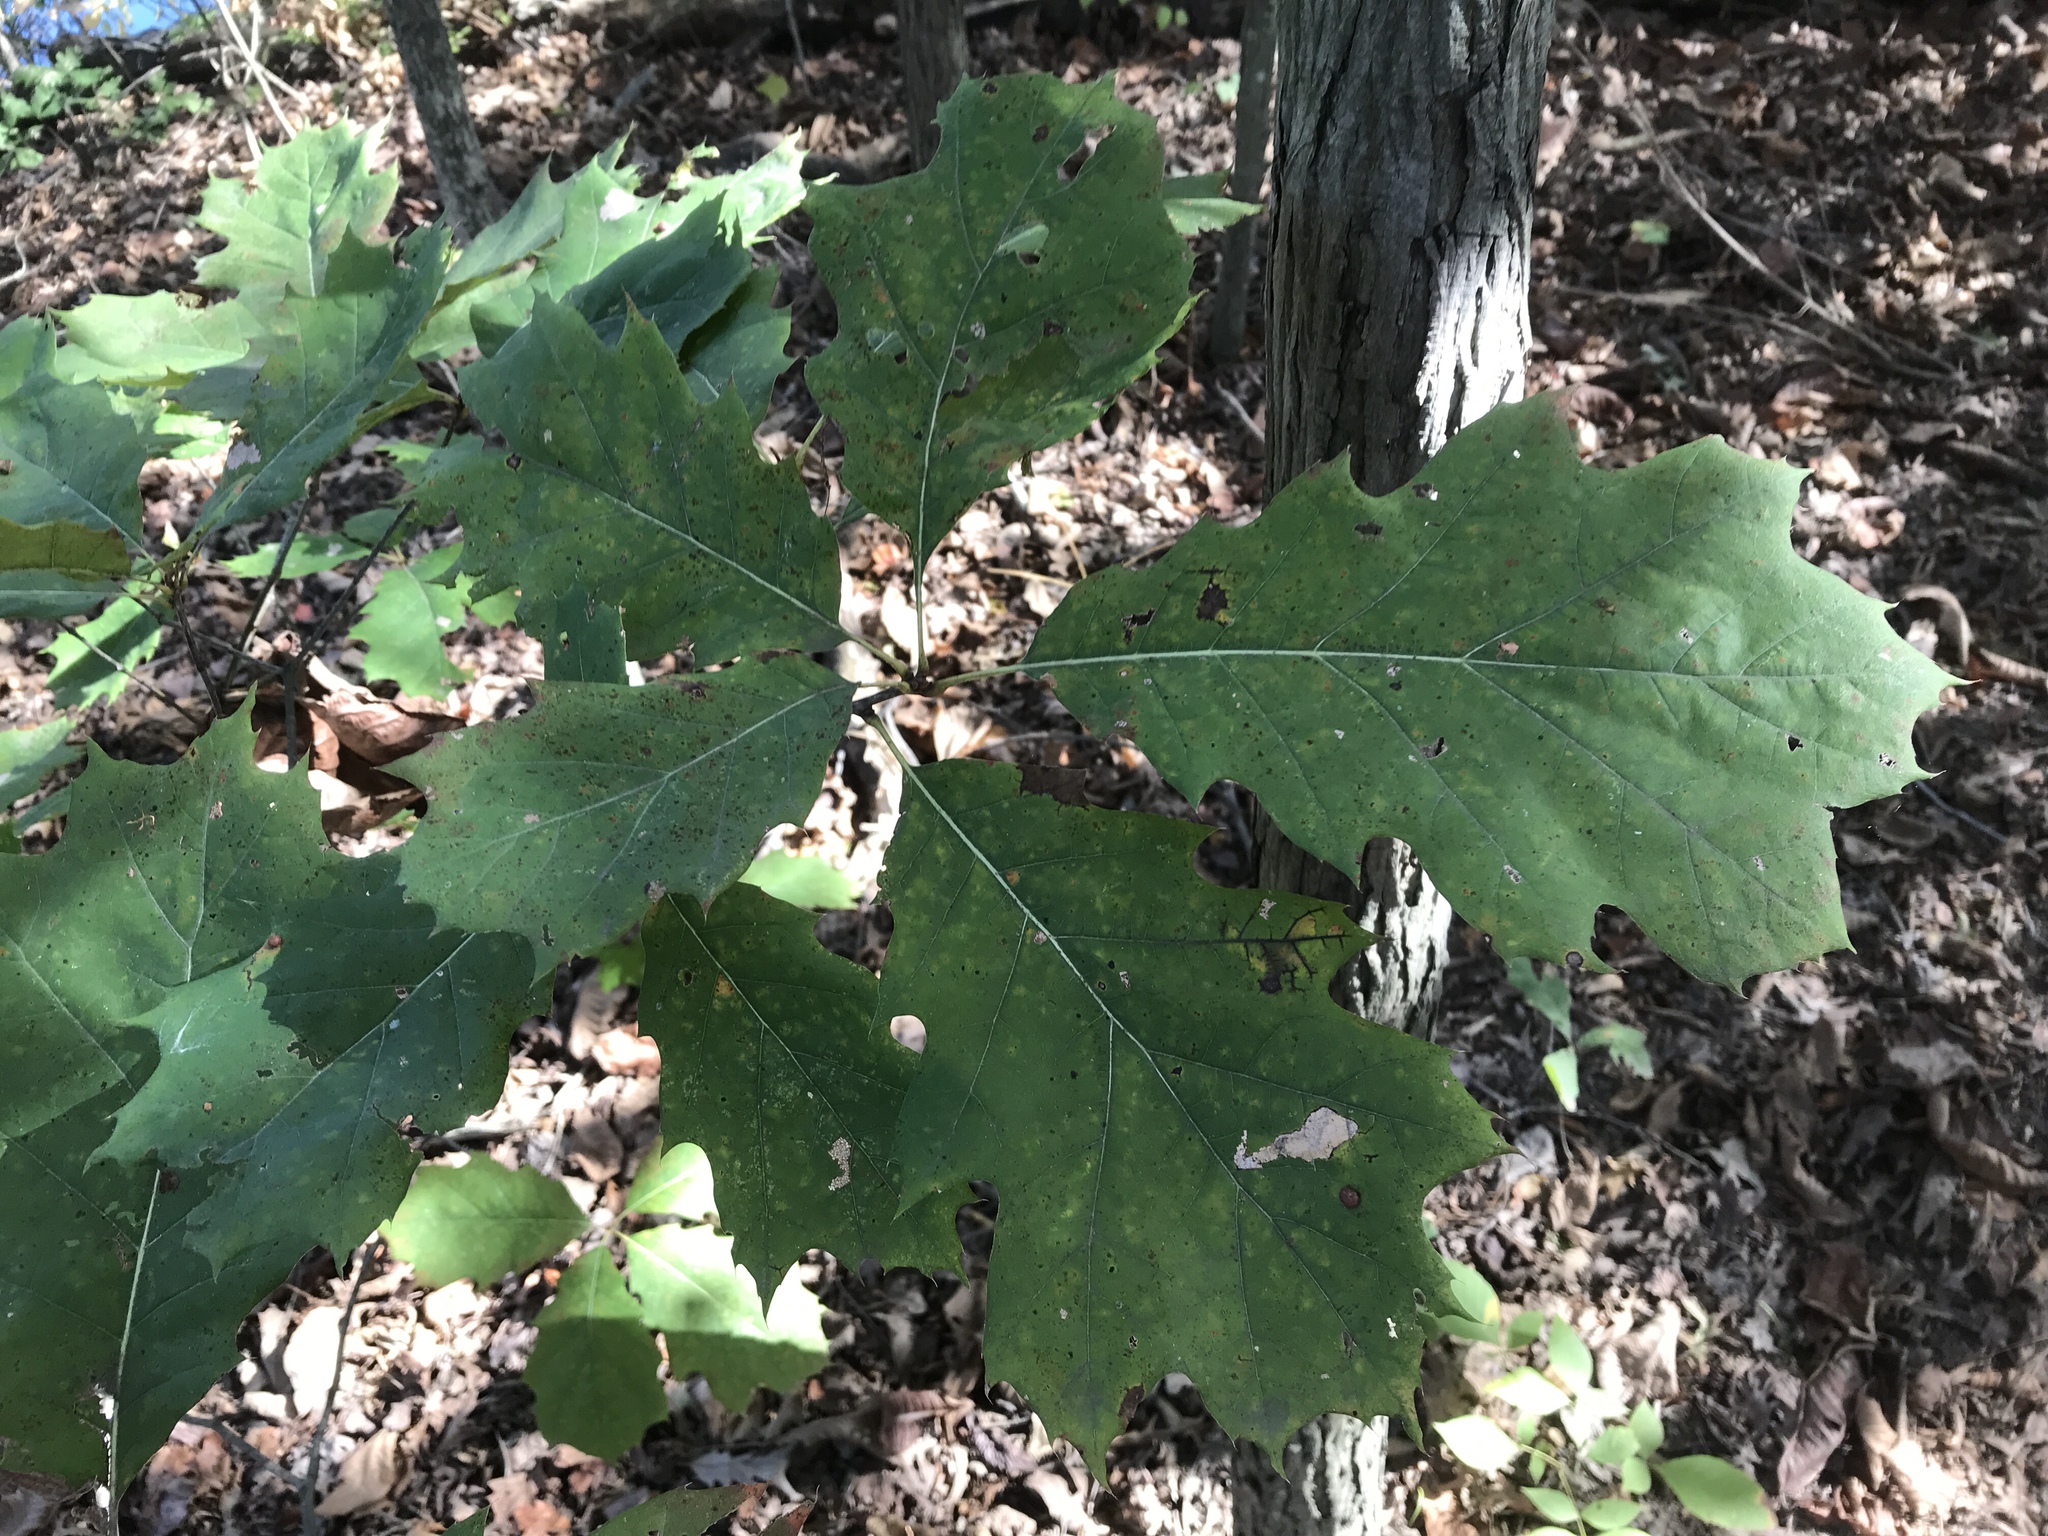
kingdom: Plantae
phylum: Tracheophyta
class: Magnoliopsida
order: Fagales
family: Fagaceae
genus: Quercus
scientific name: Quercus rubra
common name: Red oak
